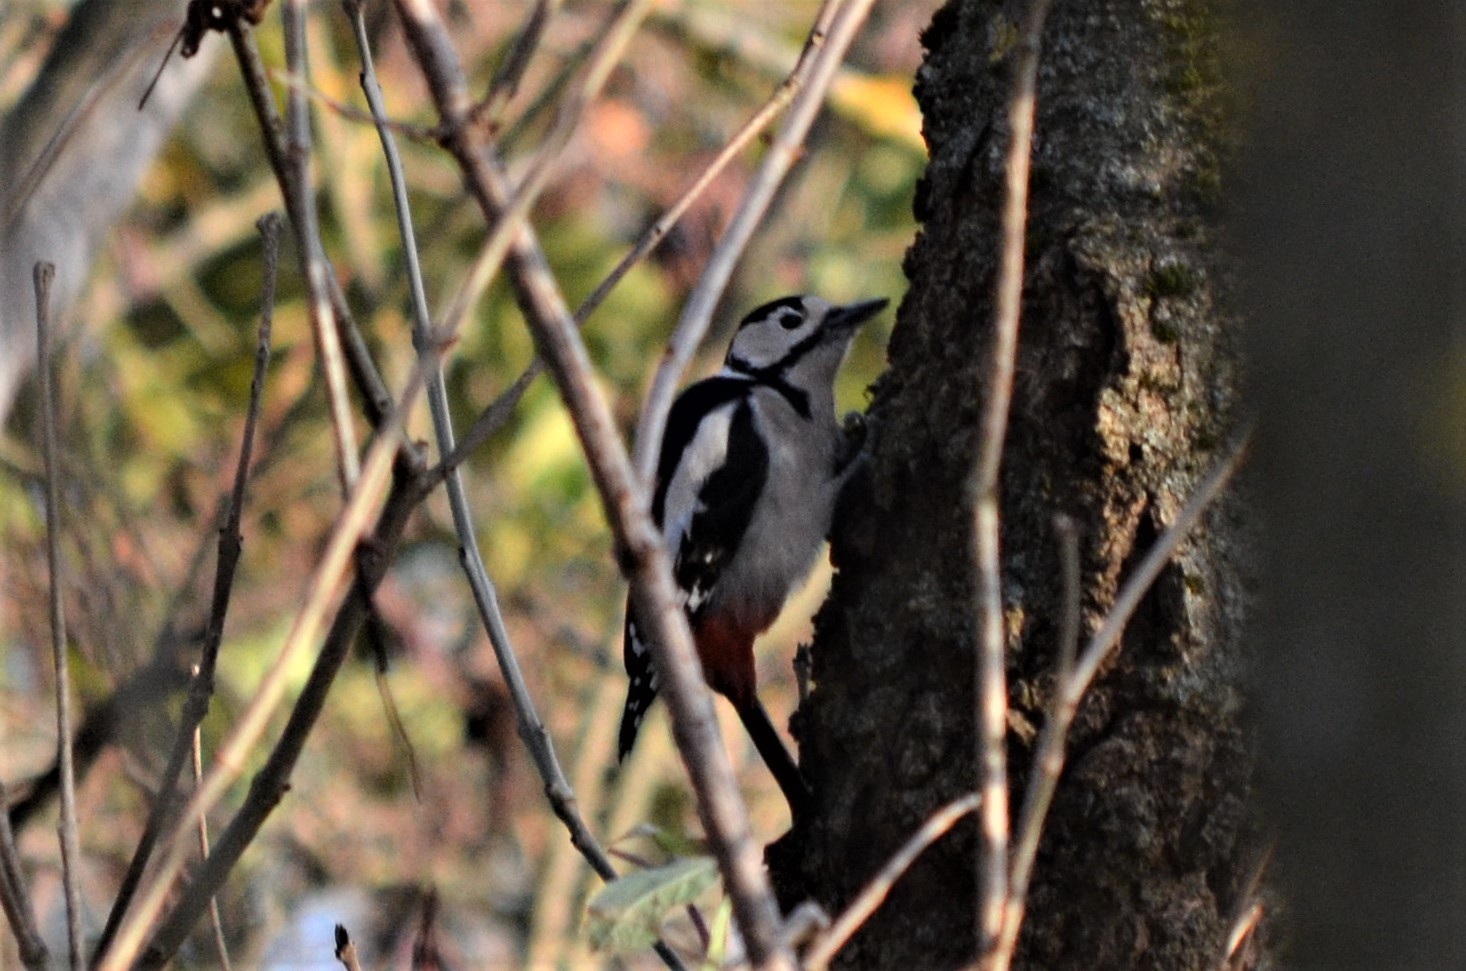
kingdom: Animalia
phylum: Chordata
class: Aves
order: Piciformes
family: Picidae
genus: Dendrocopos
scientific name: Dendrocopos major
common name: Great spotted woodpecker
